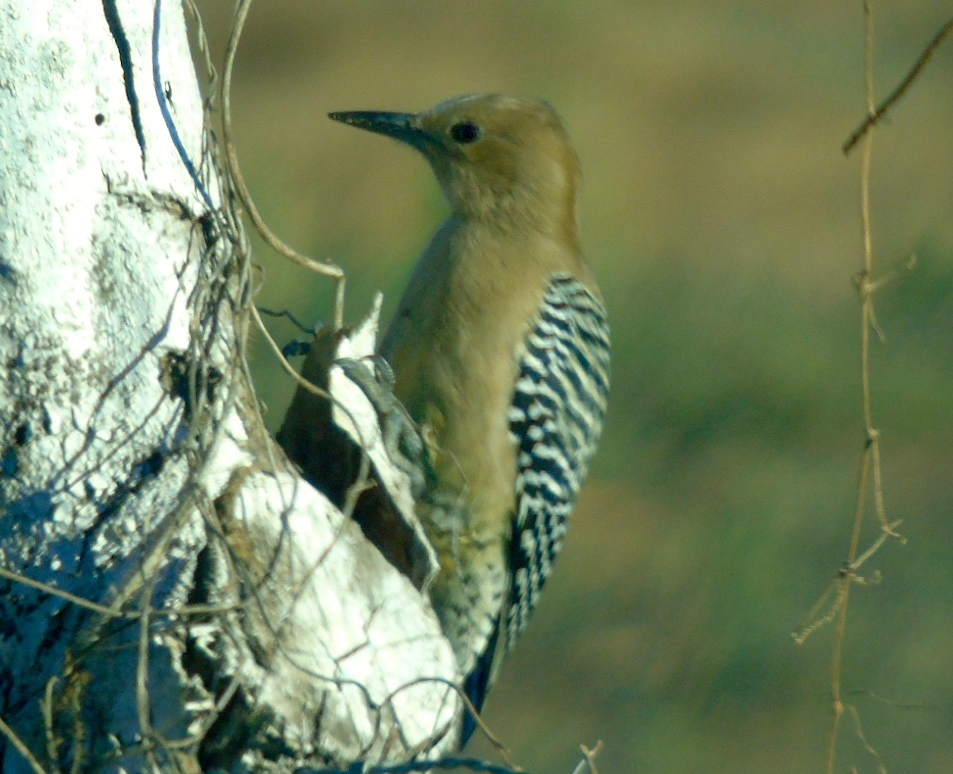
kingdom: Animalia
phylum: Chordata
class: Aves
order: Piciformes
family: Picidae
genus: Melanerpes
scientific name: Melanerpes uropygialis
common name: Gila woodpecker
